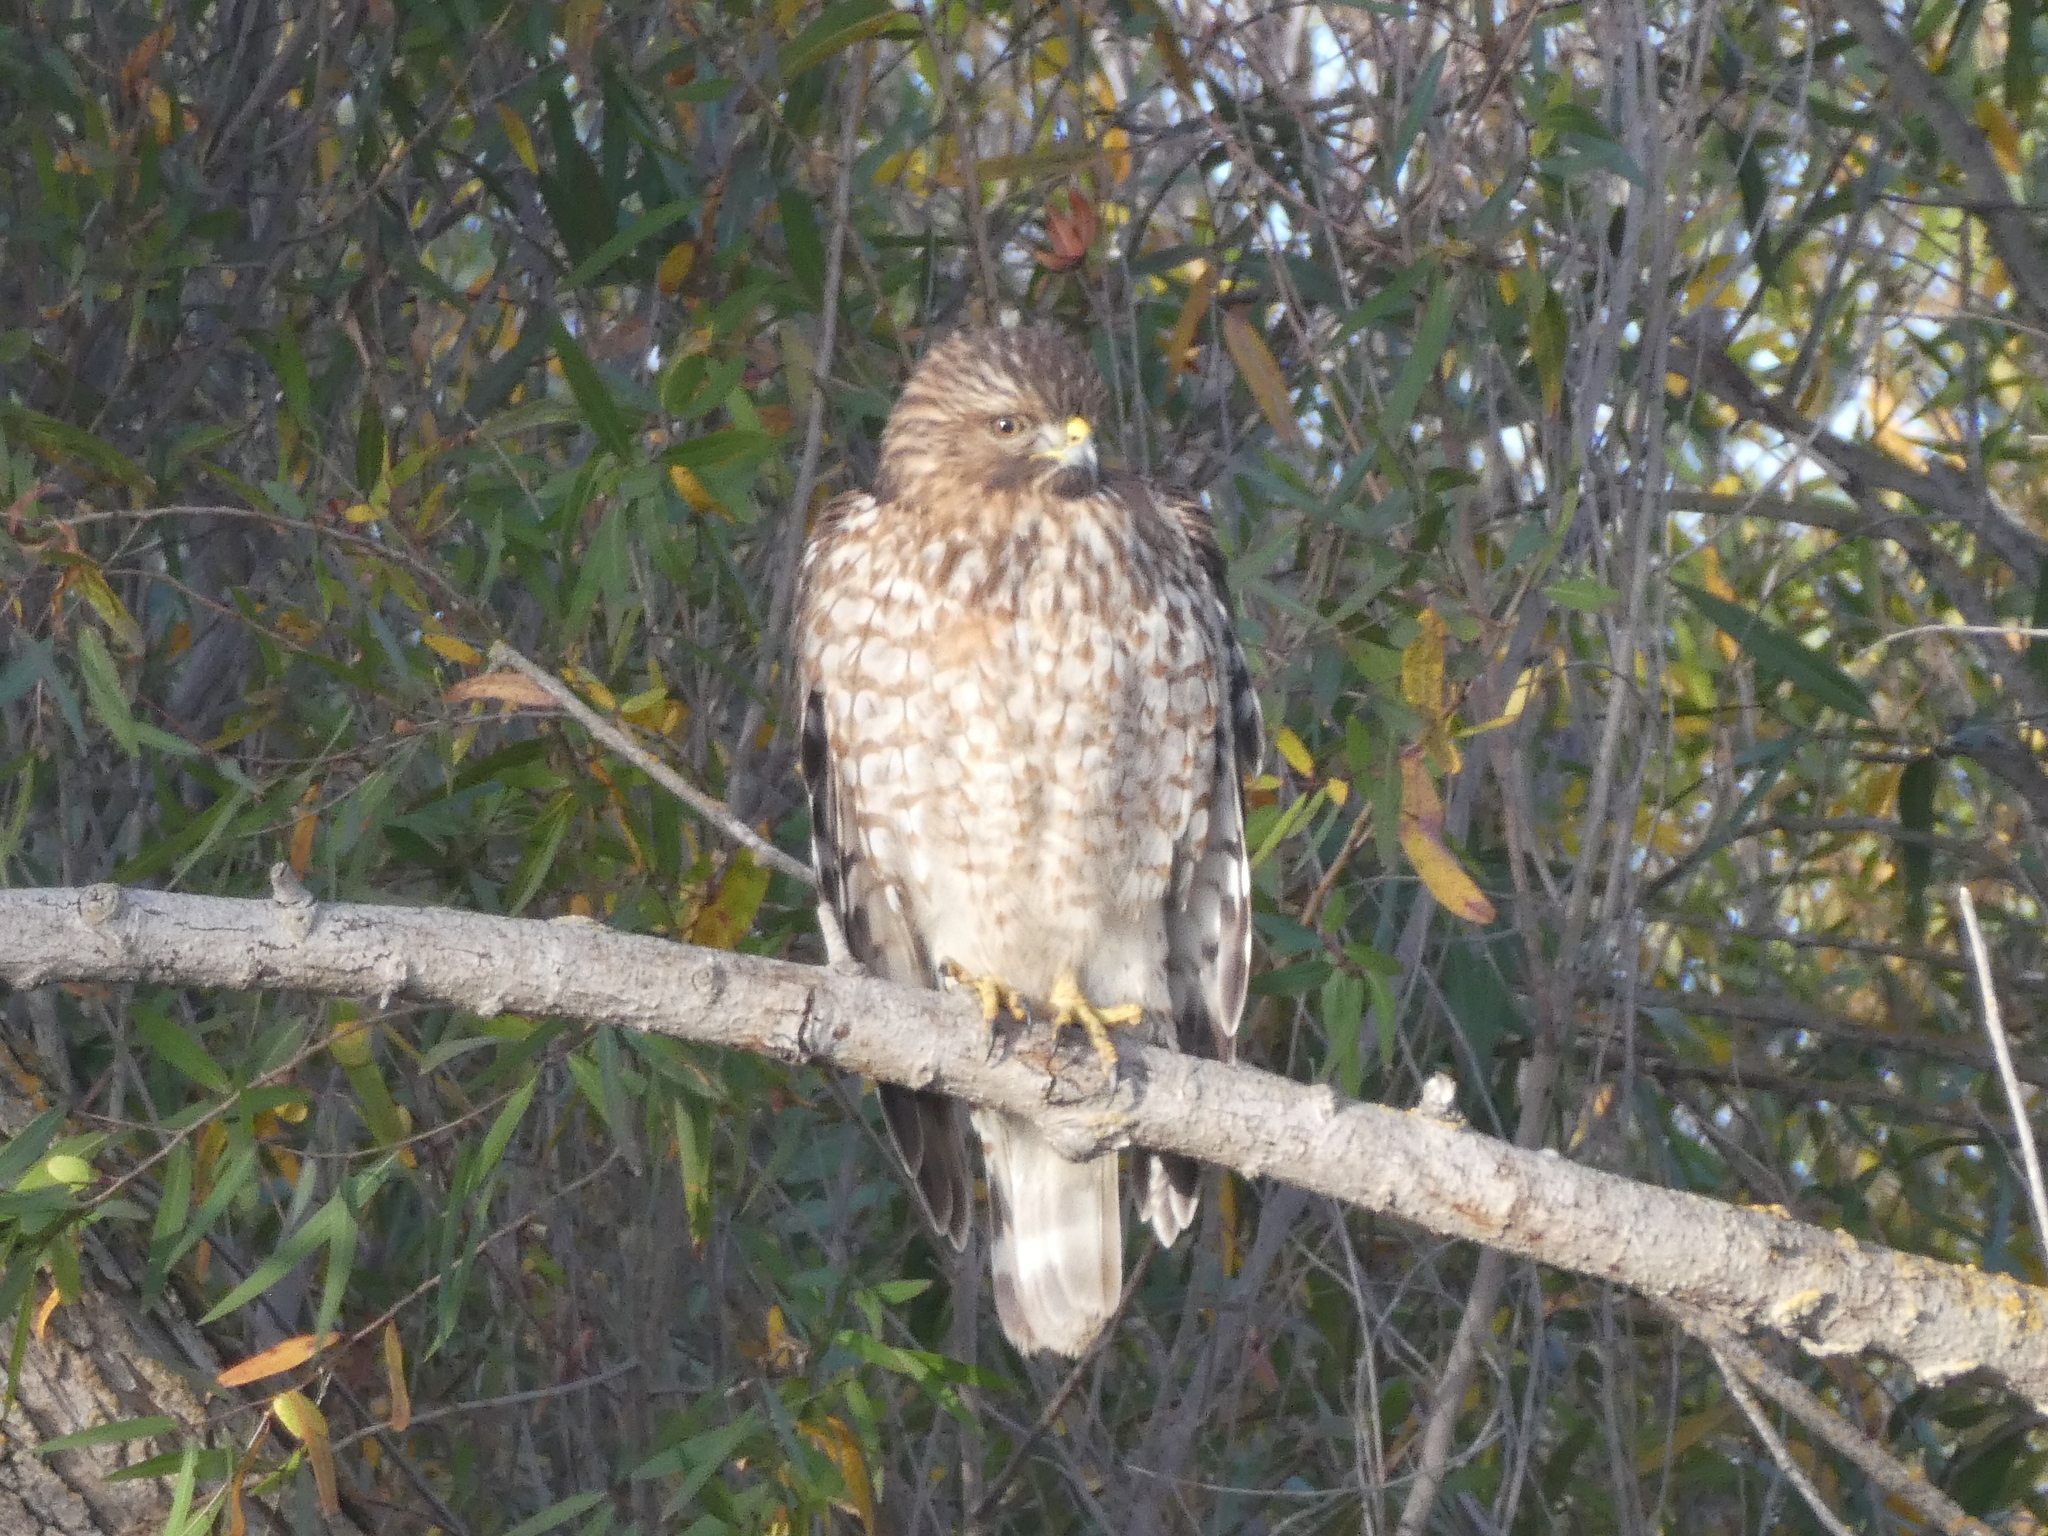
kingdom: Animalia
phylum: Chordata
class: Aves
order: Accipitriformes
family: Accipitridae
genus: Buteo
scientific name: Buteo lineatus
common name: Red-shouldered hawk
